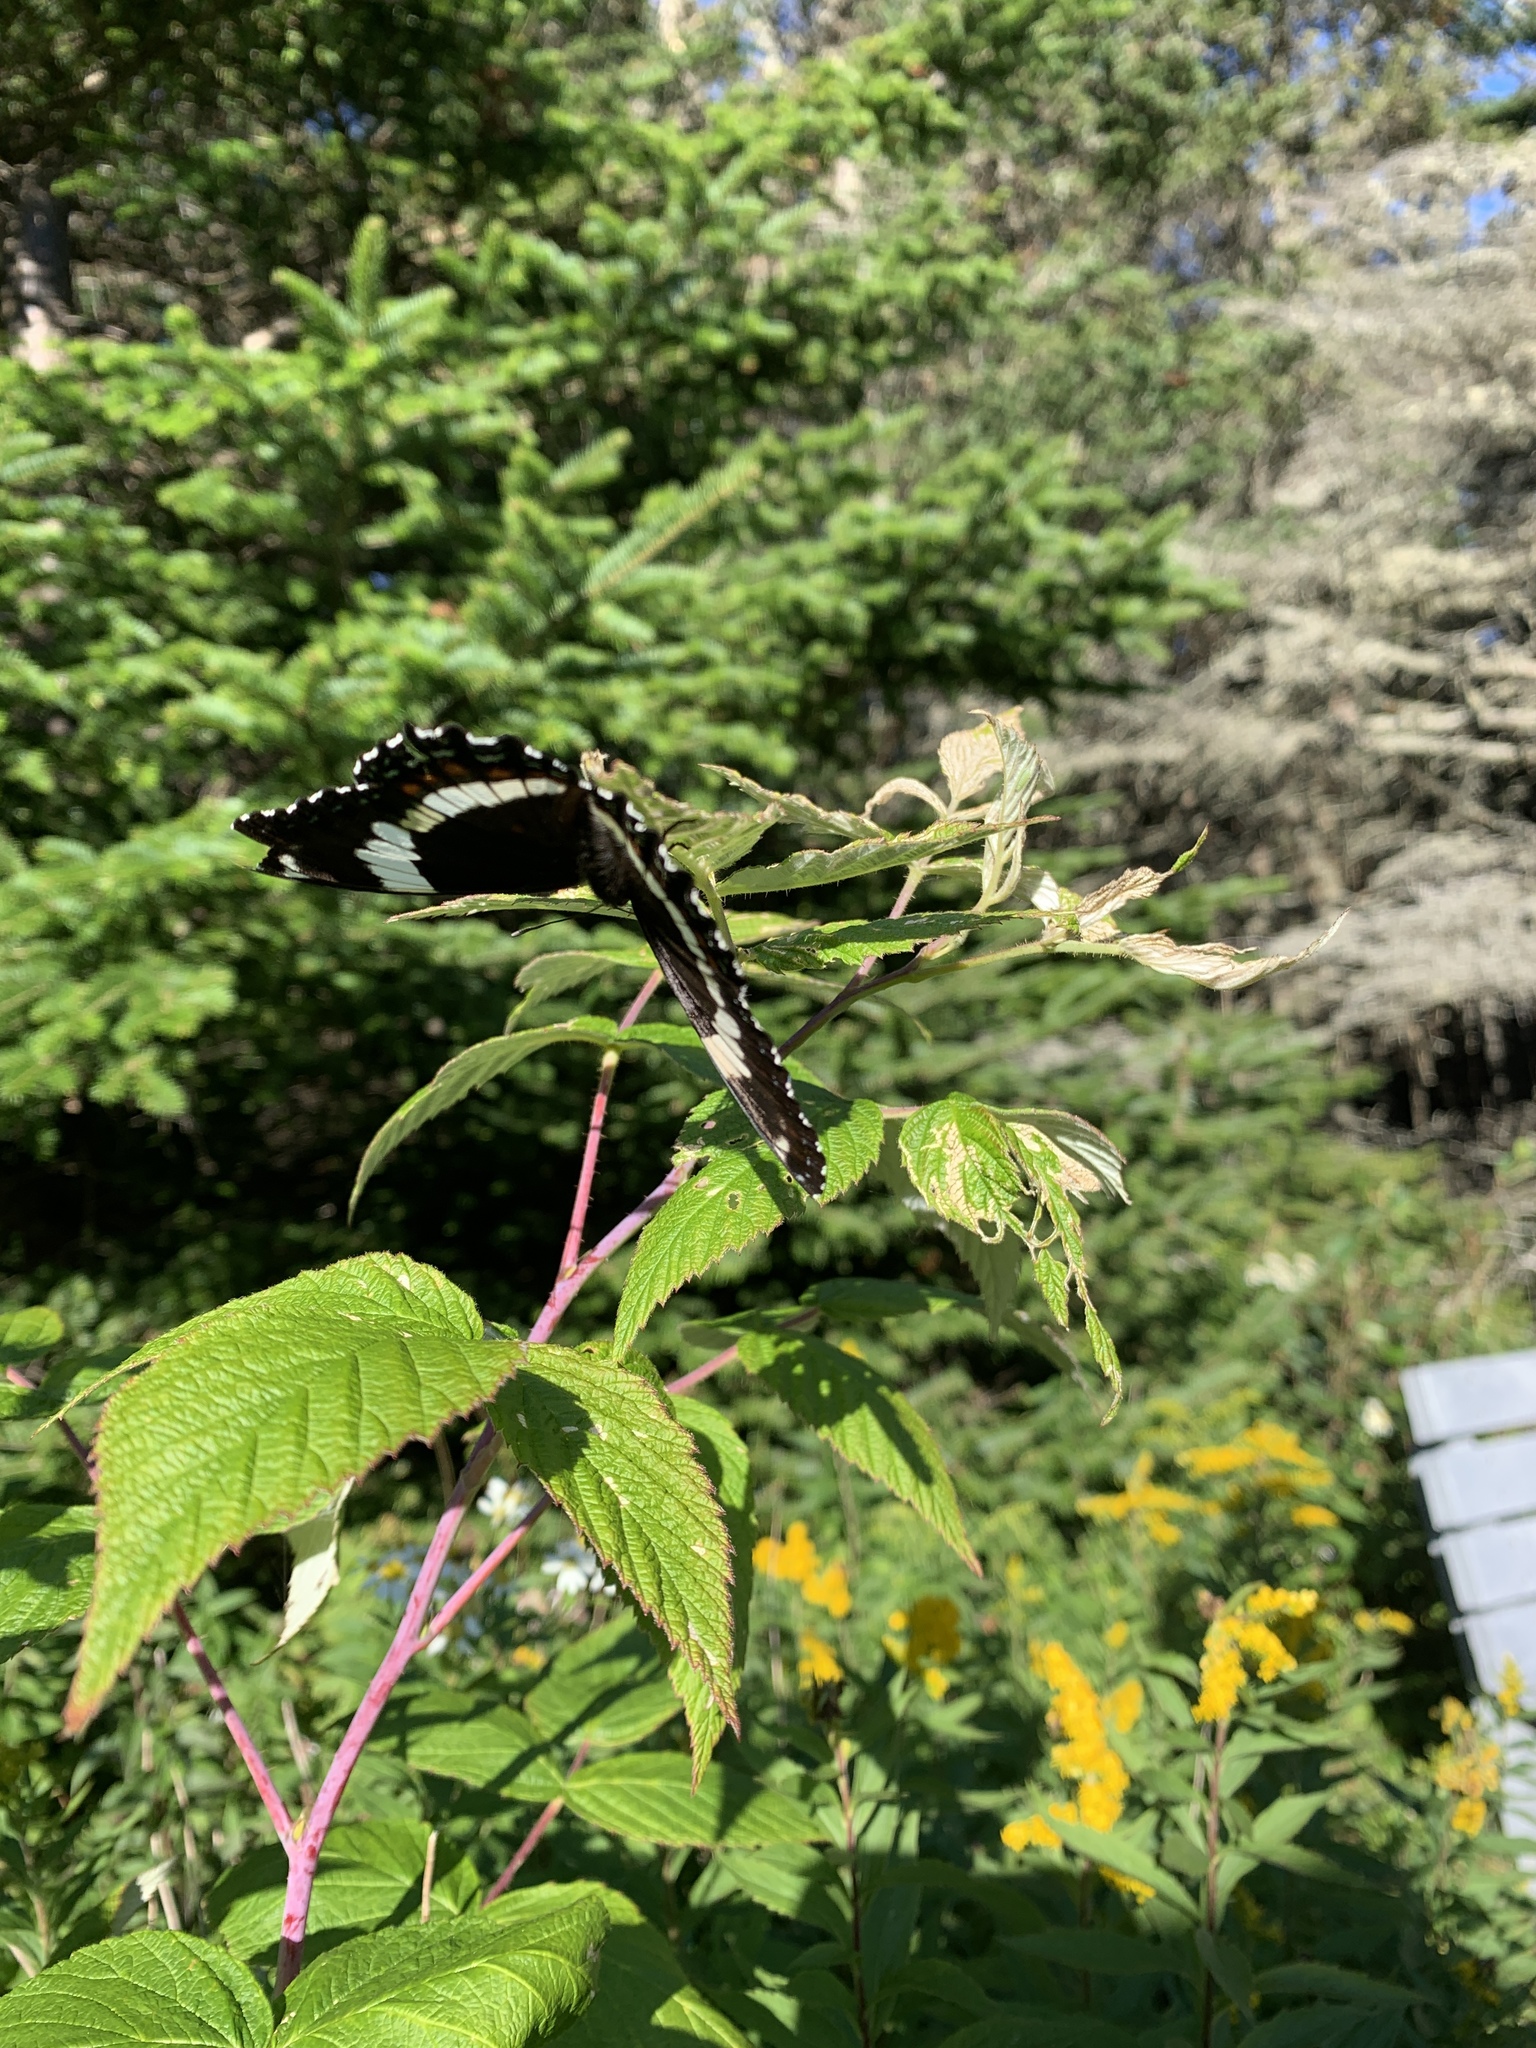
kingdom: Animalia
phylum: Arthropoda
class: Insecta
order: Lepidoptera
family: Nymphalidae
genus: Limenitis
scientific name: Limenitis arthemis
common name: Red-spotted admiral
